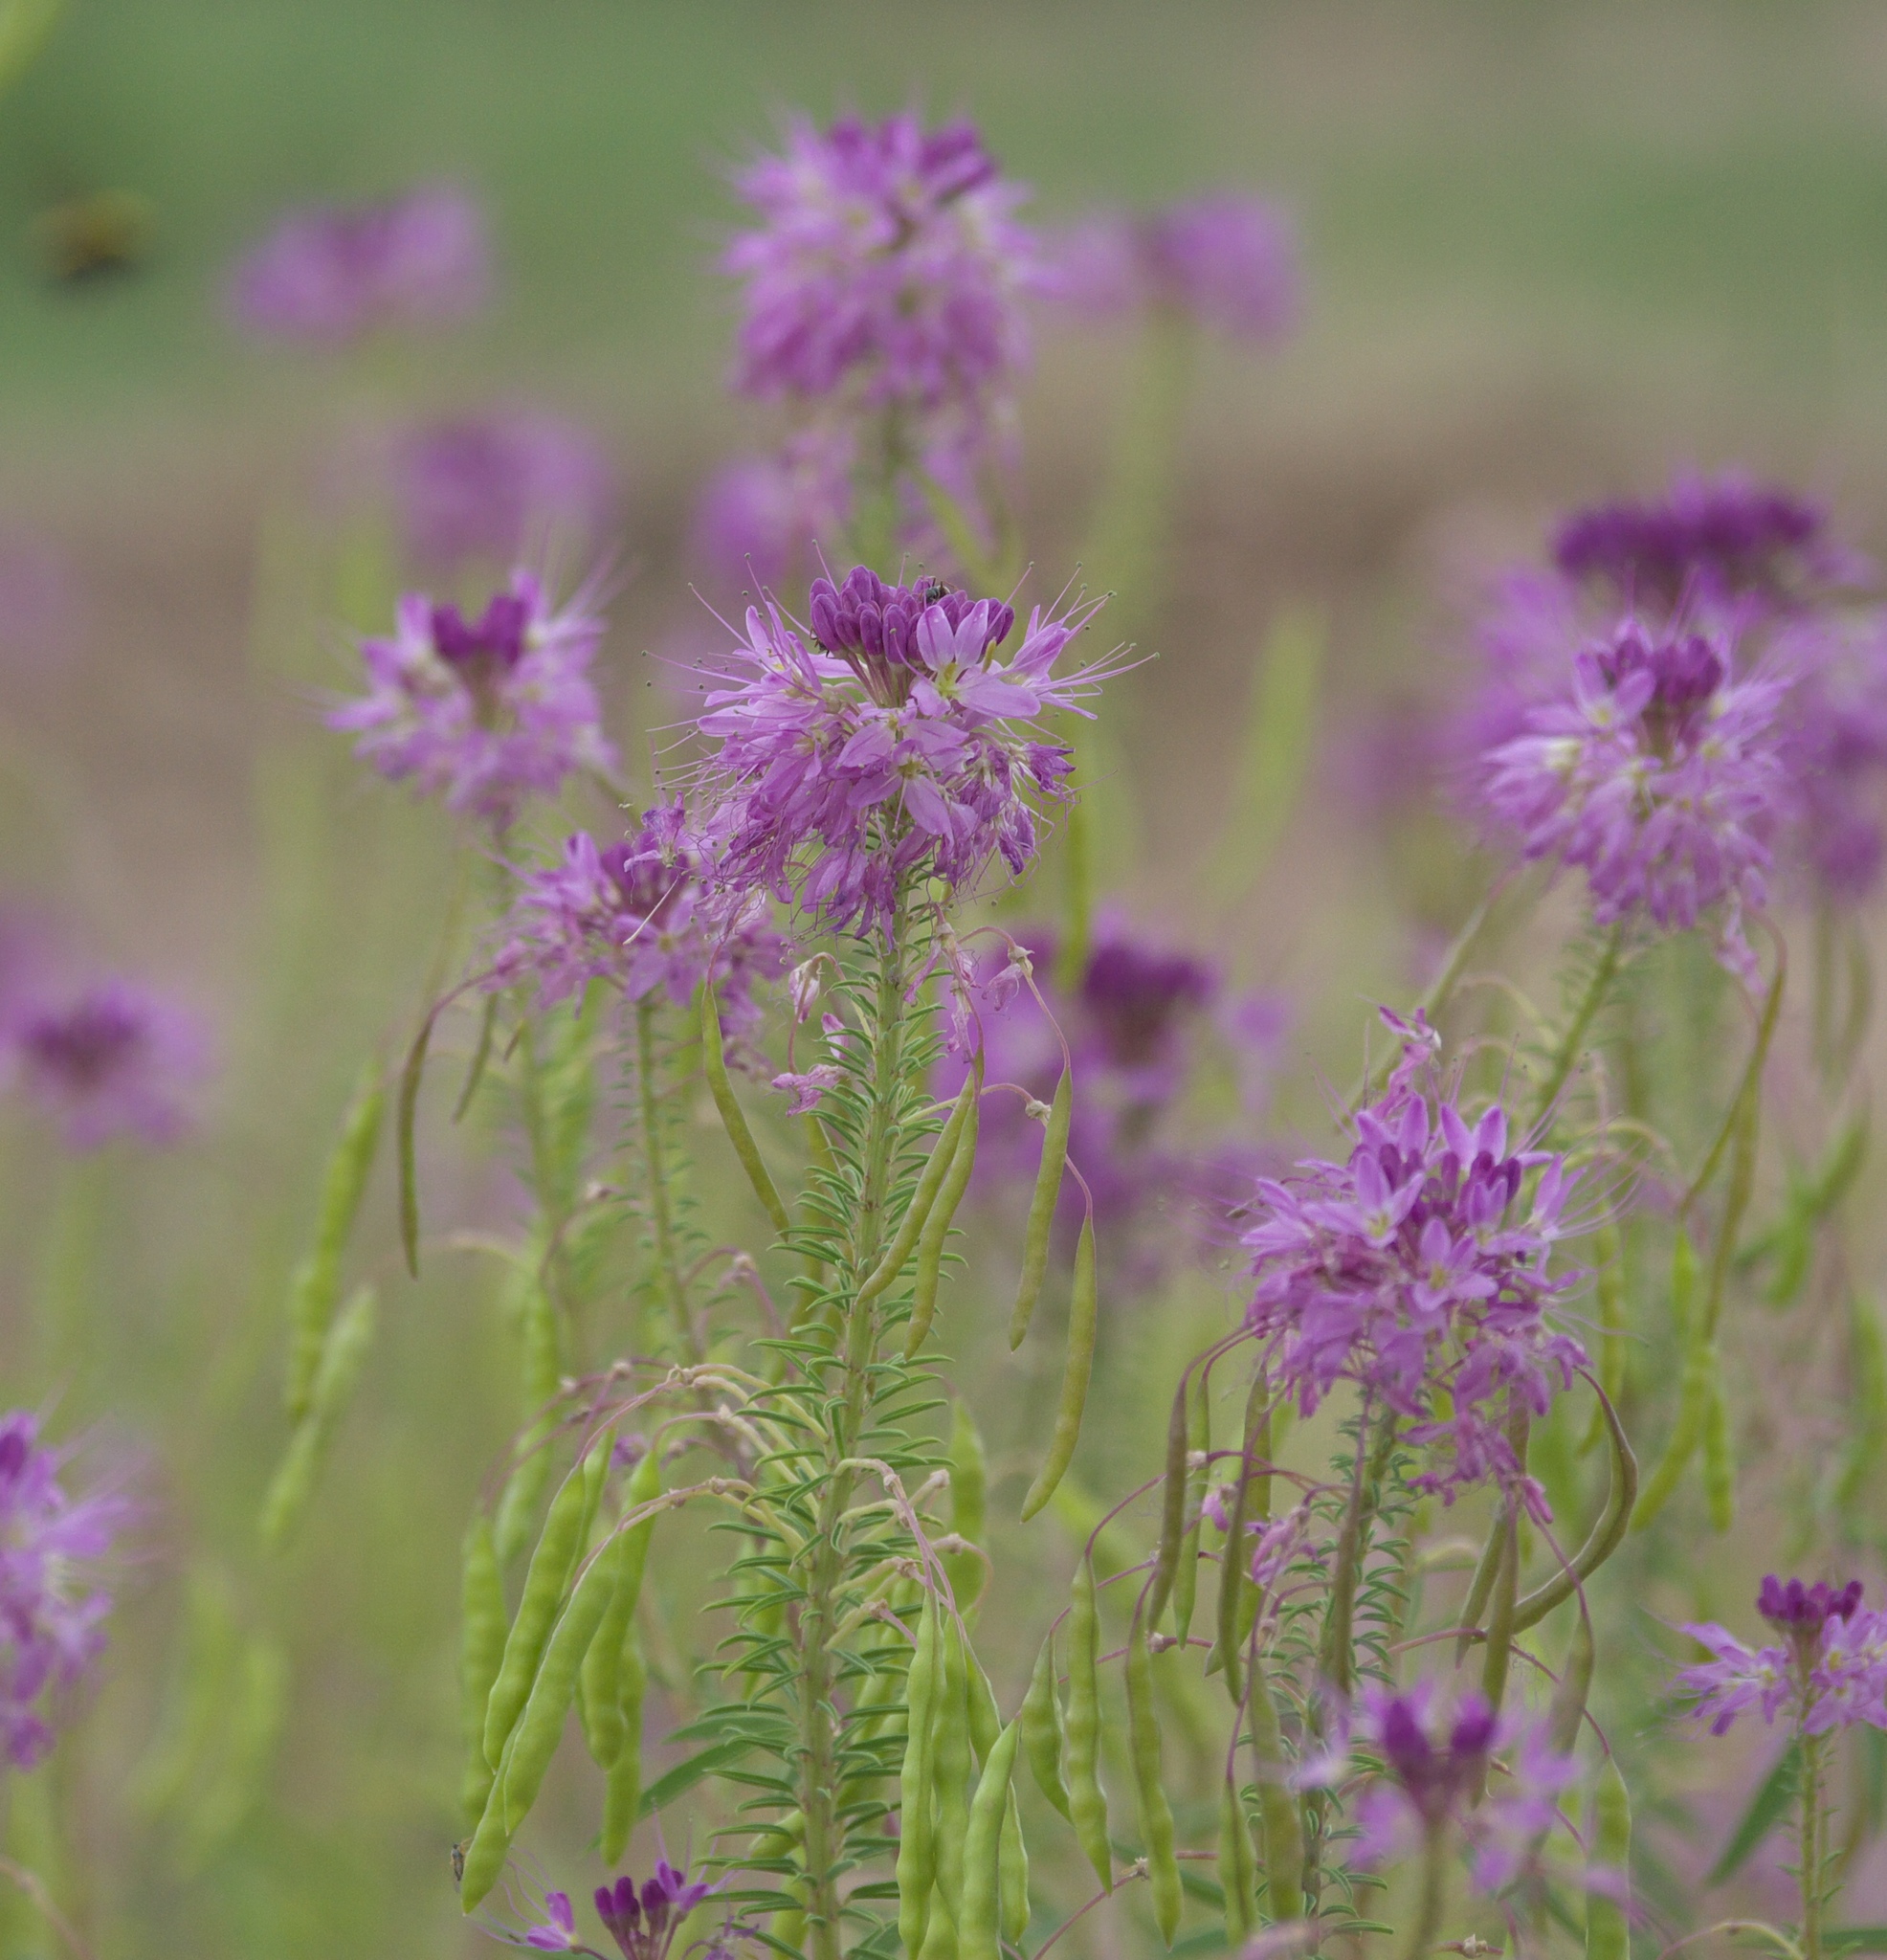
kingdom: Plantae
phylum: Tracheophyta
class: Magnoliopsida
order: Brassicales
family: Cleomaceae
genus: Cleomella
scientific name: Cleomella serrulata
